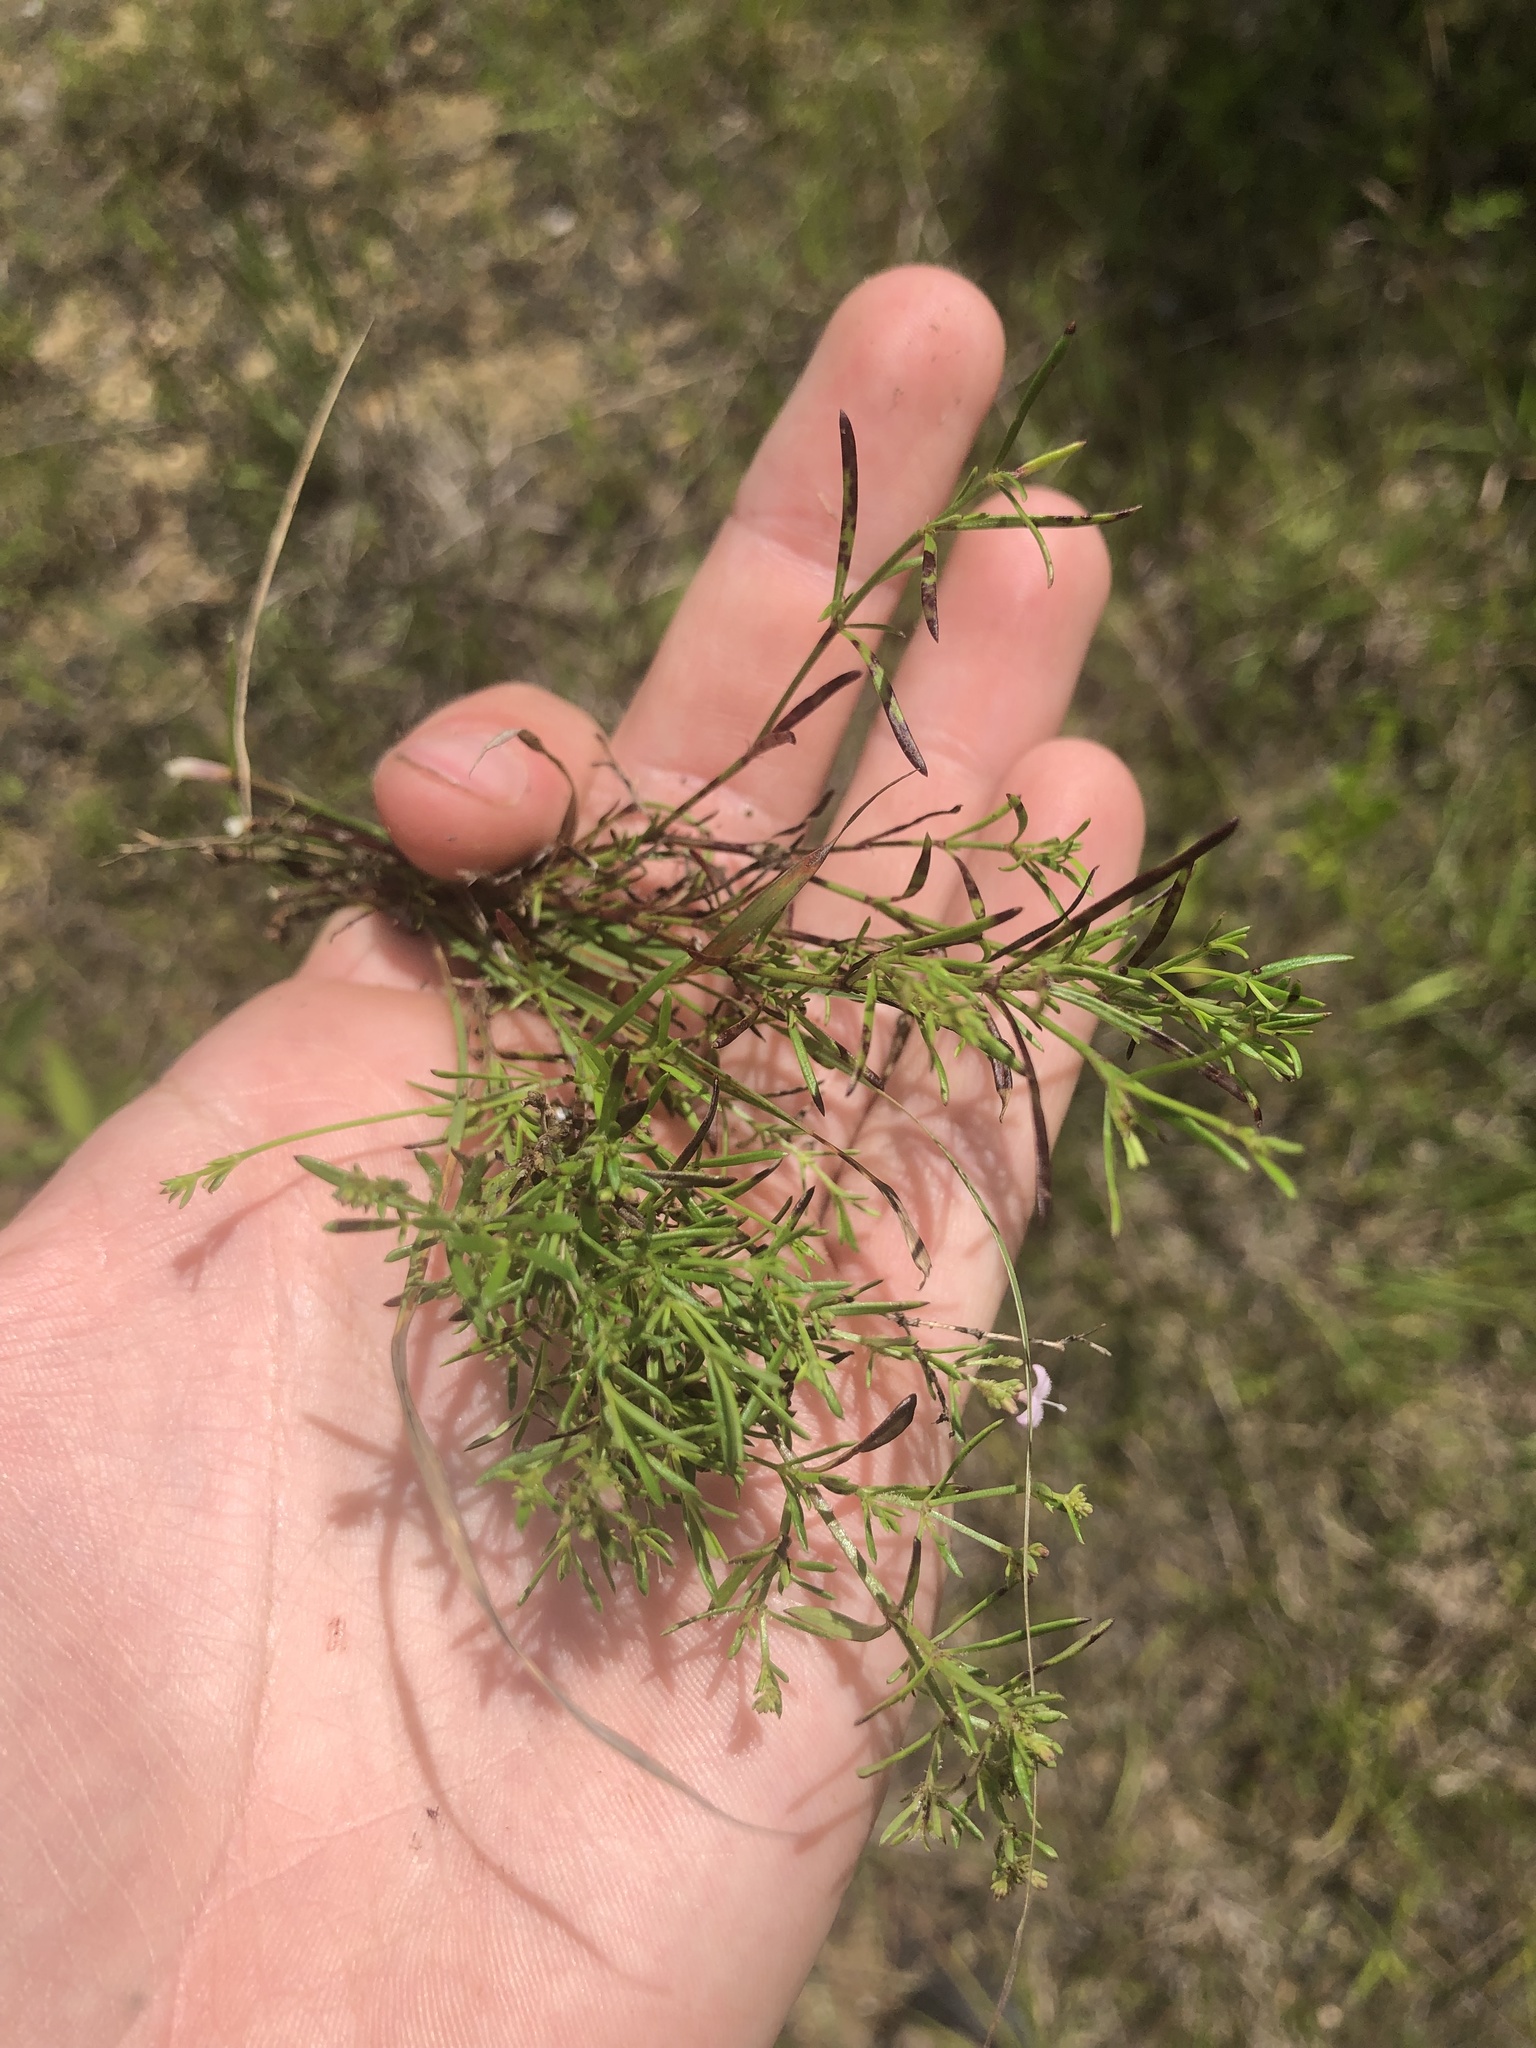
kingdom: Plantae
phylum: Tracheophyta
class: Magnoliopsida
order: Gentianales
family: Rubiaceae
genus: Stenaria
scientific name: Stenaria nigricans
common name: Diamondflowers
